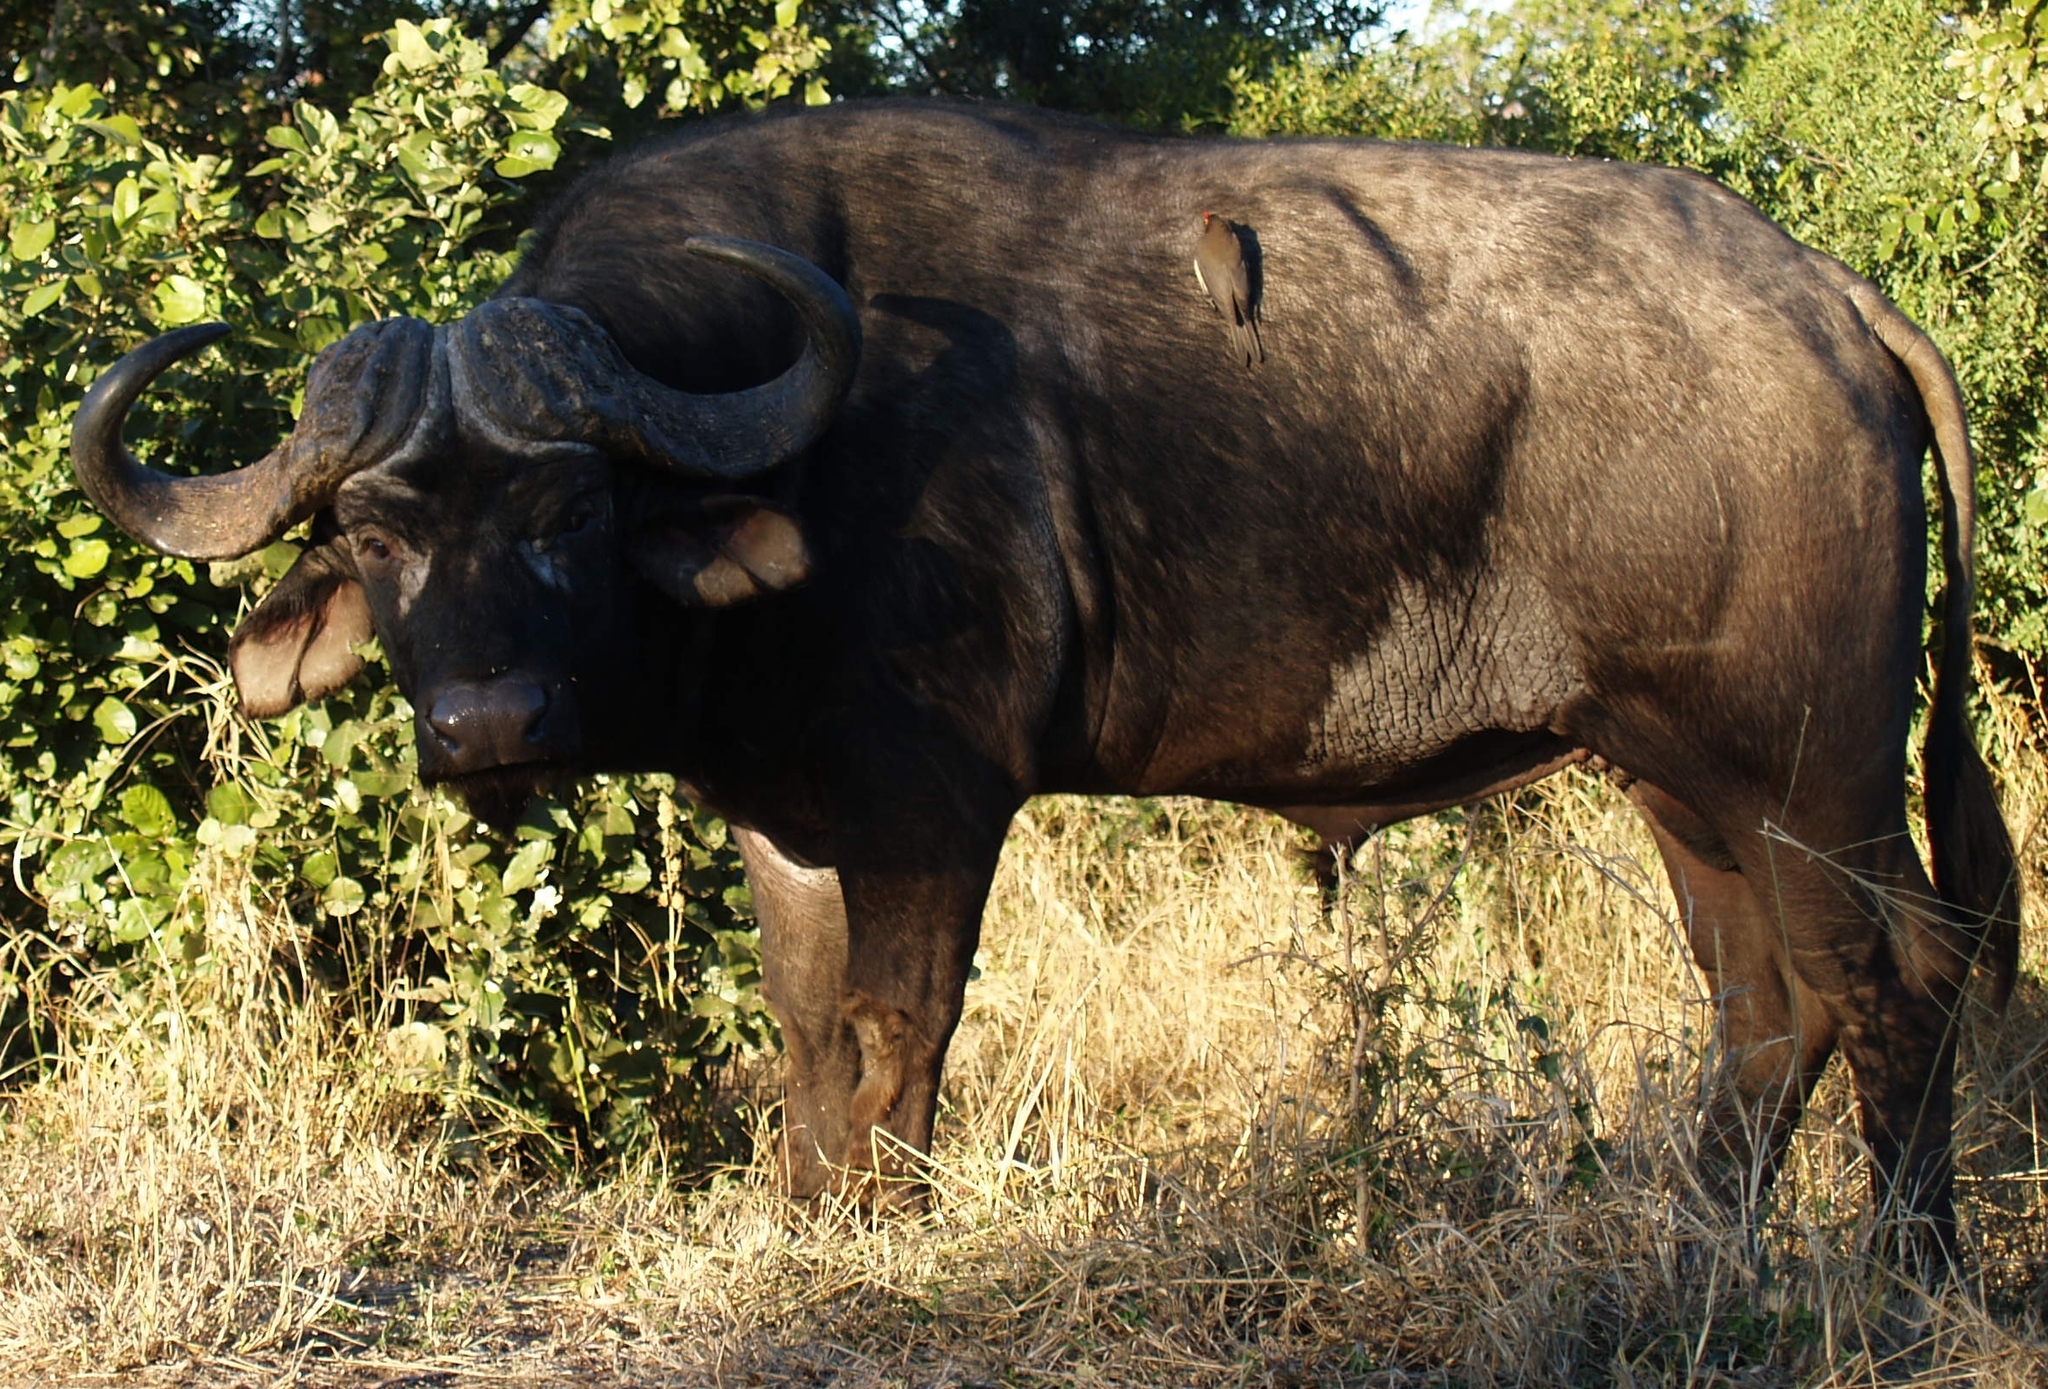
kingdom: Animalia
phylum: Chordata
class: Mammalia
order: Artiodactyla
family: Bovidae
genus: Syncerus
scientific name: Syncerus caffer
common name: African buffalo
